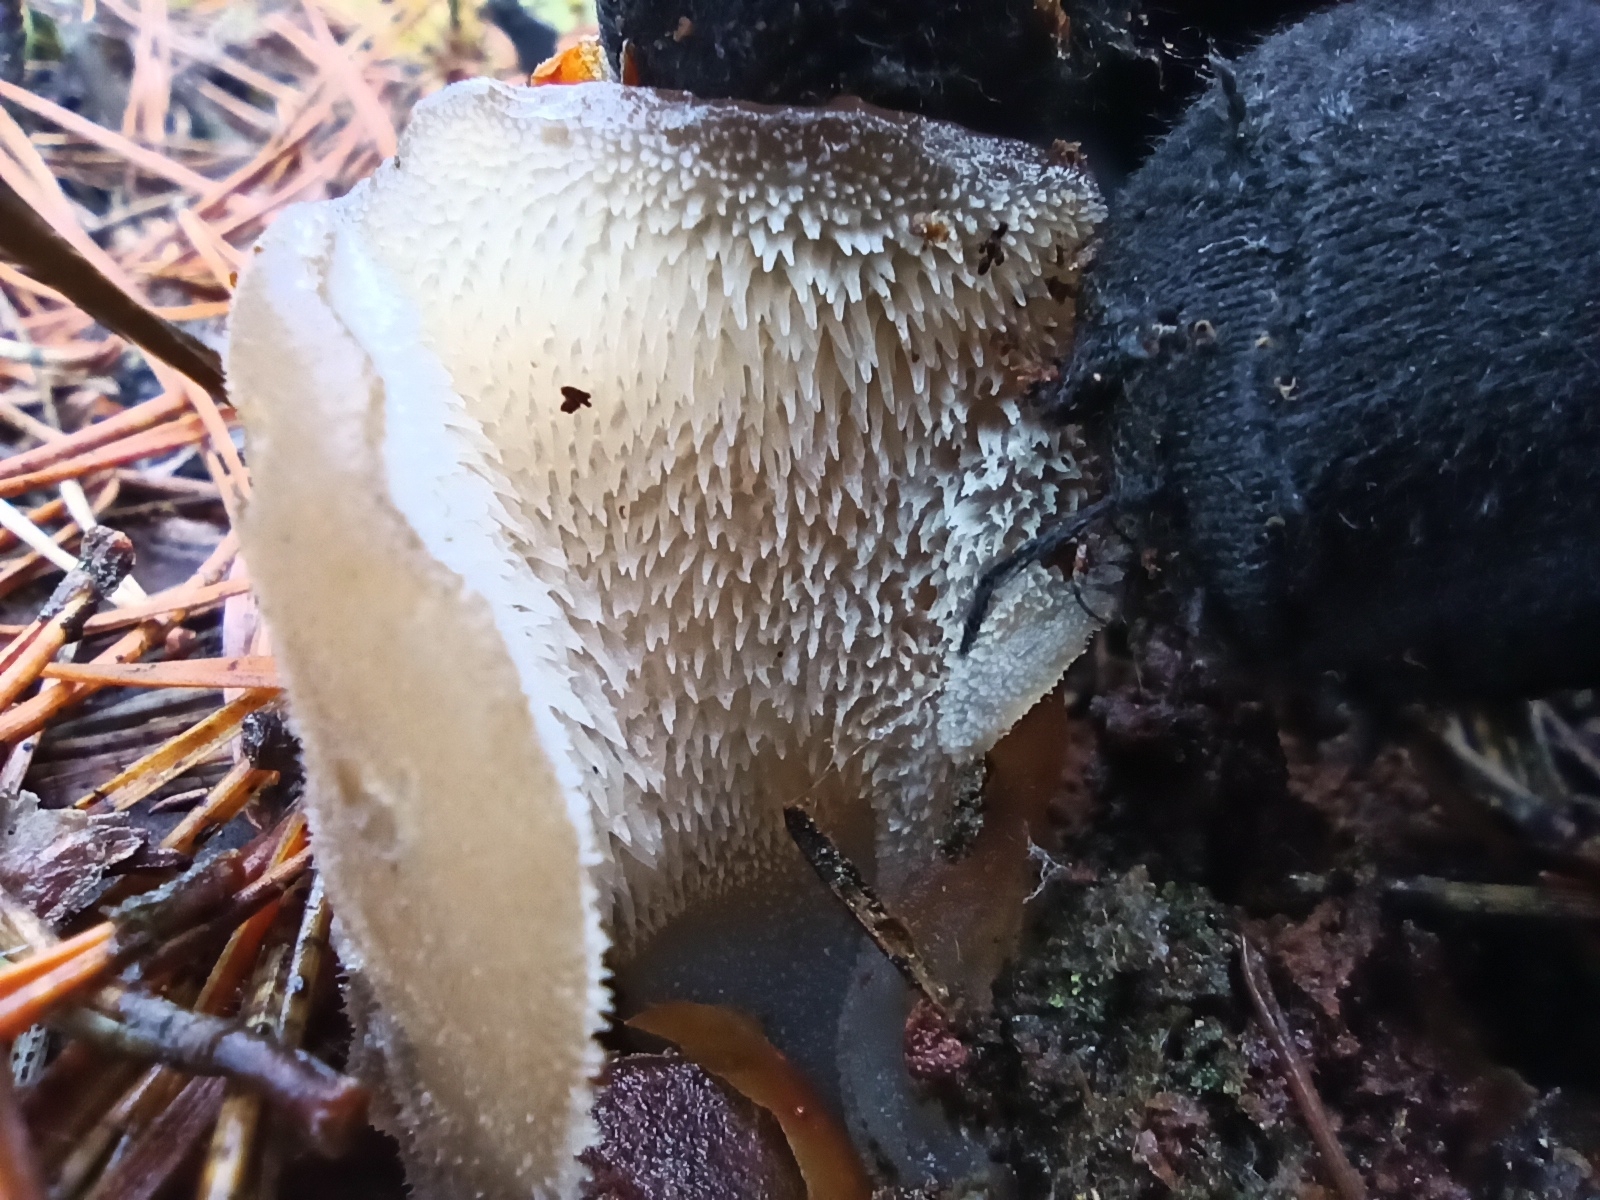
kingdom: Fungi
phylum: Basidiomycota
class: Agaricomycetes
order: Auriculariales
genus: Pseudohydnum
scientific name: Pseudohydnum gelatinosum
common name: Jelly tongue
